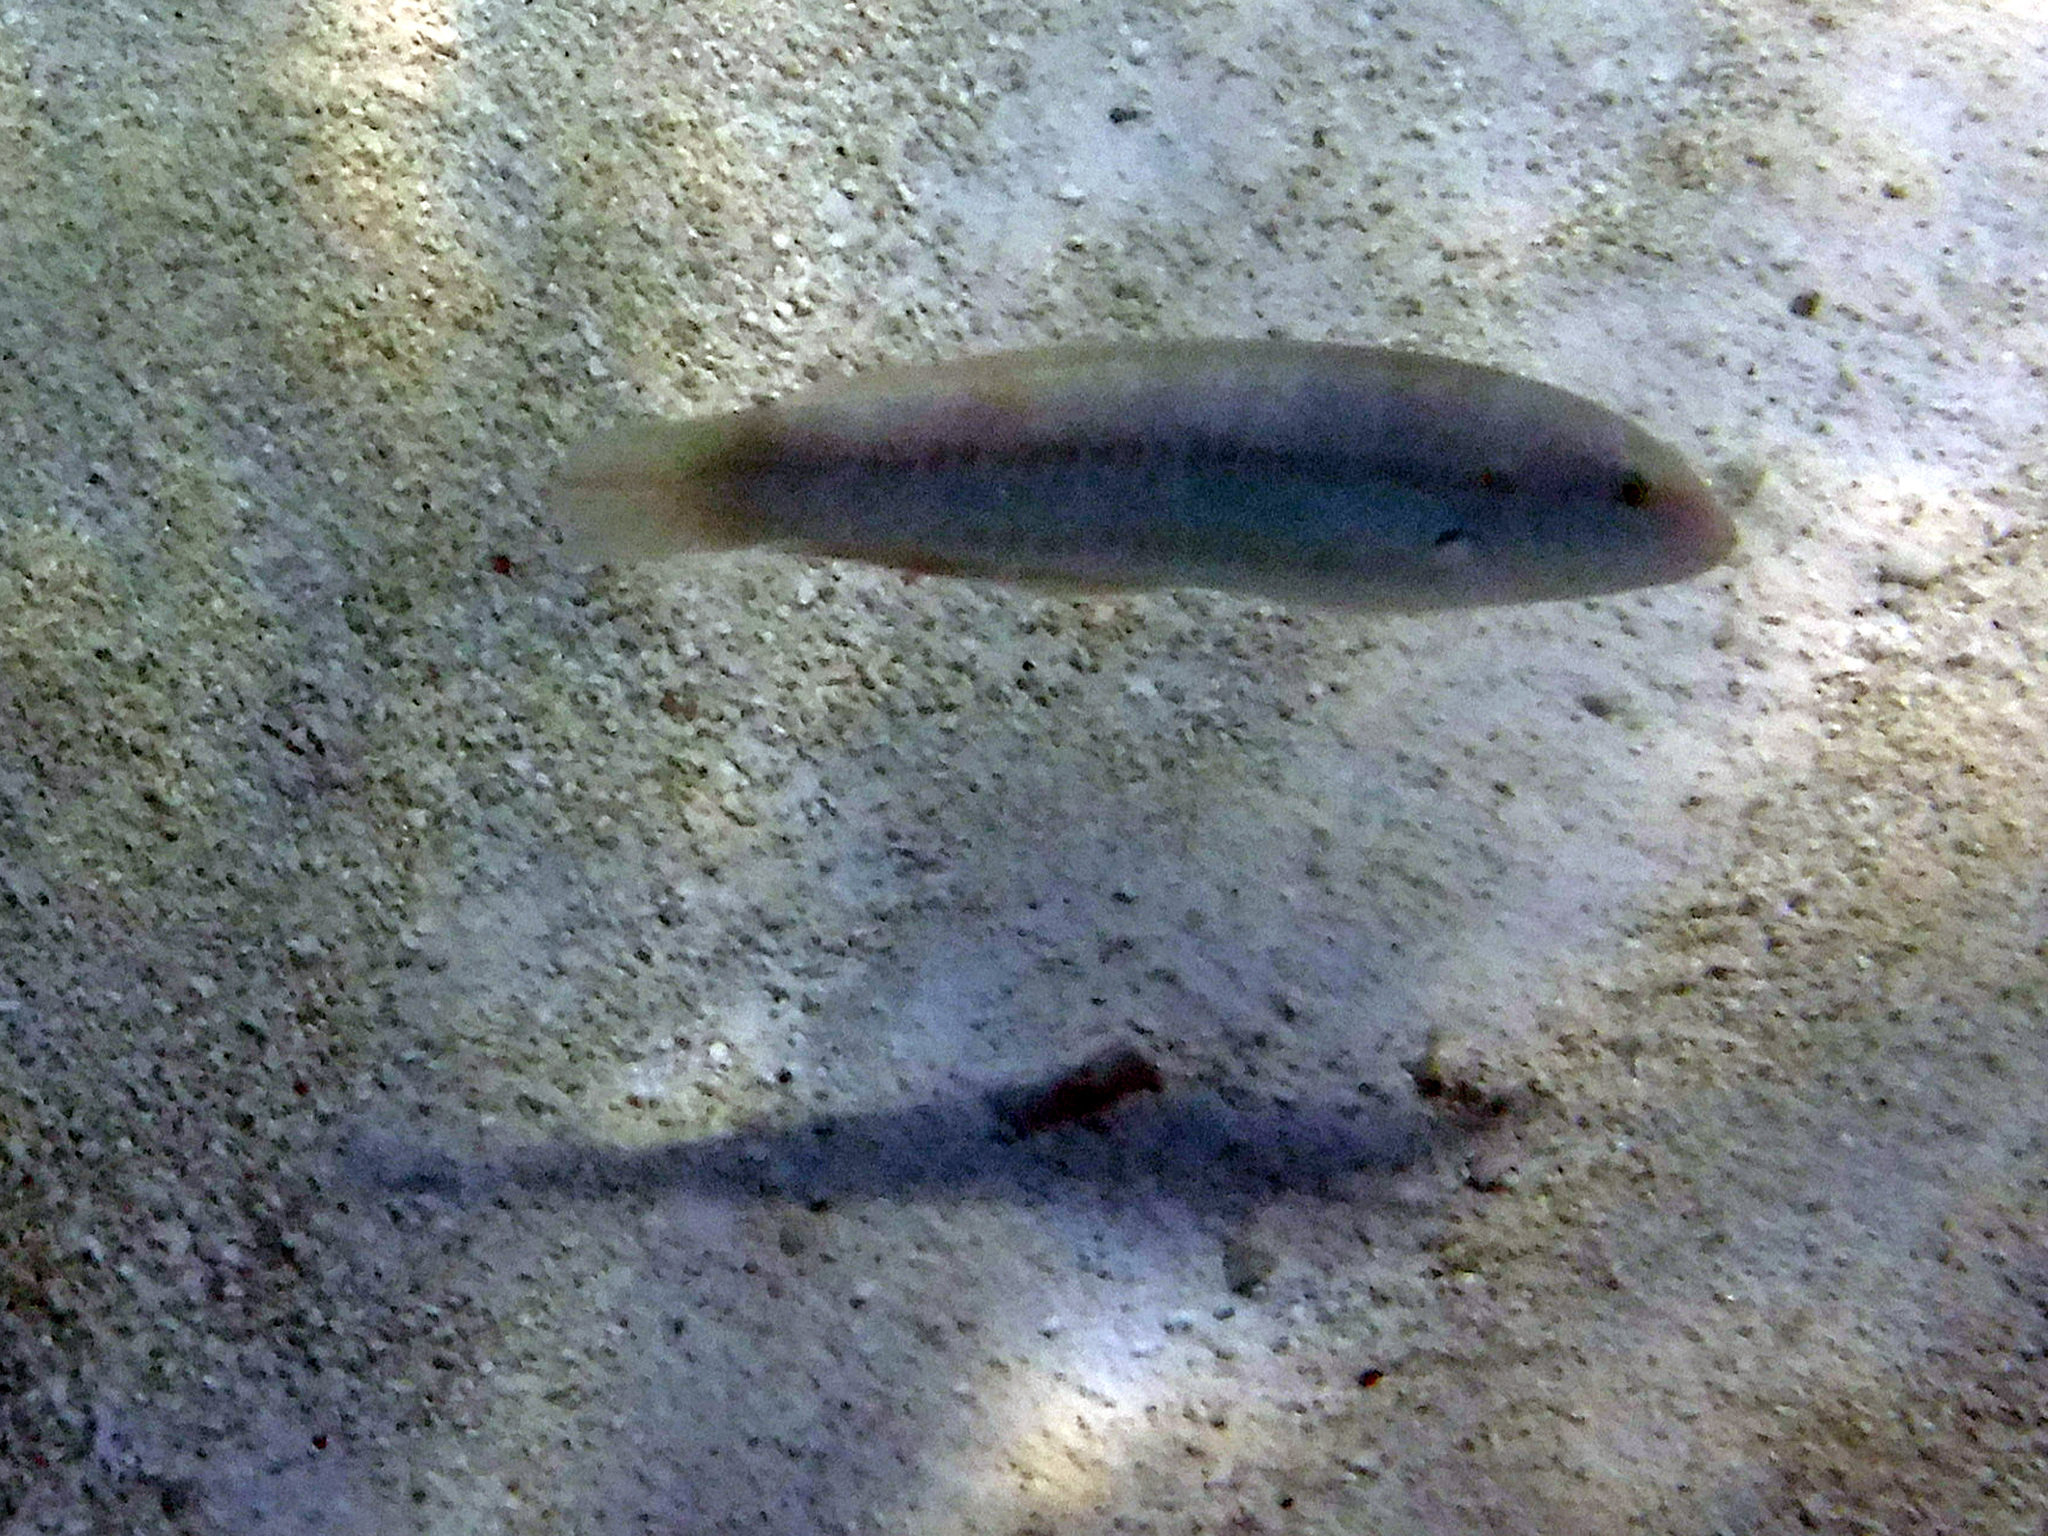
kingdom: Animalia
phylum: Chordata
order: Perciformes
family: Labridae
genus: Halichoeres
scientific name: Halichoeres bivittatus
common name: Slippery dick
